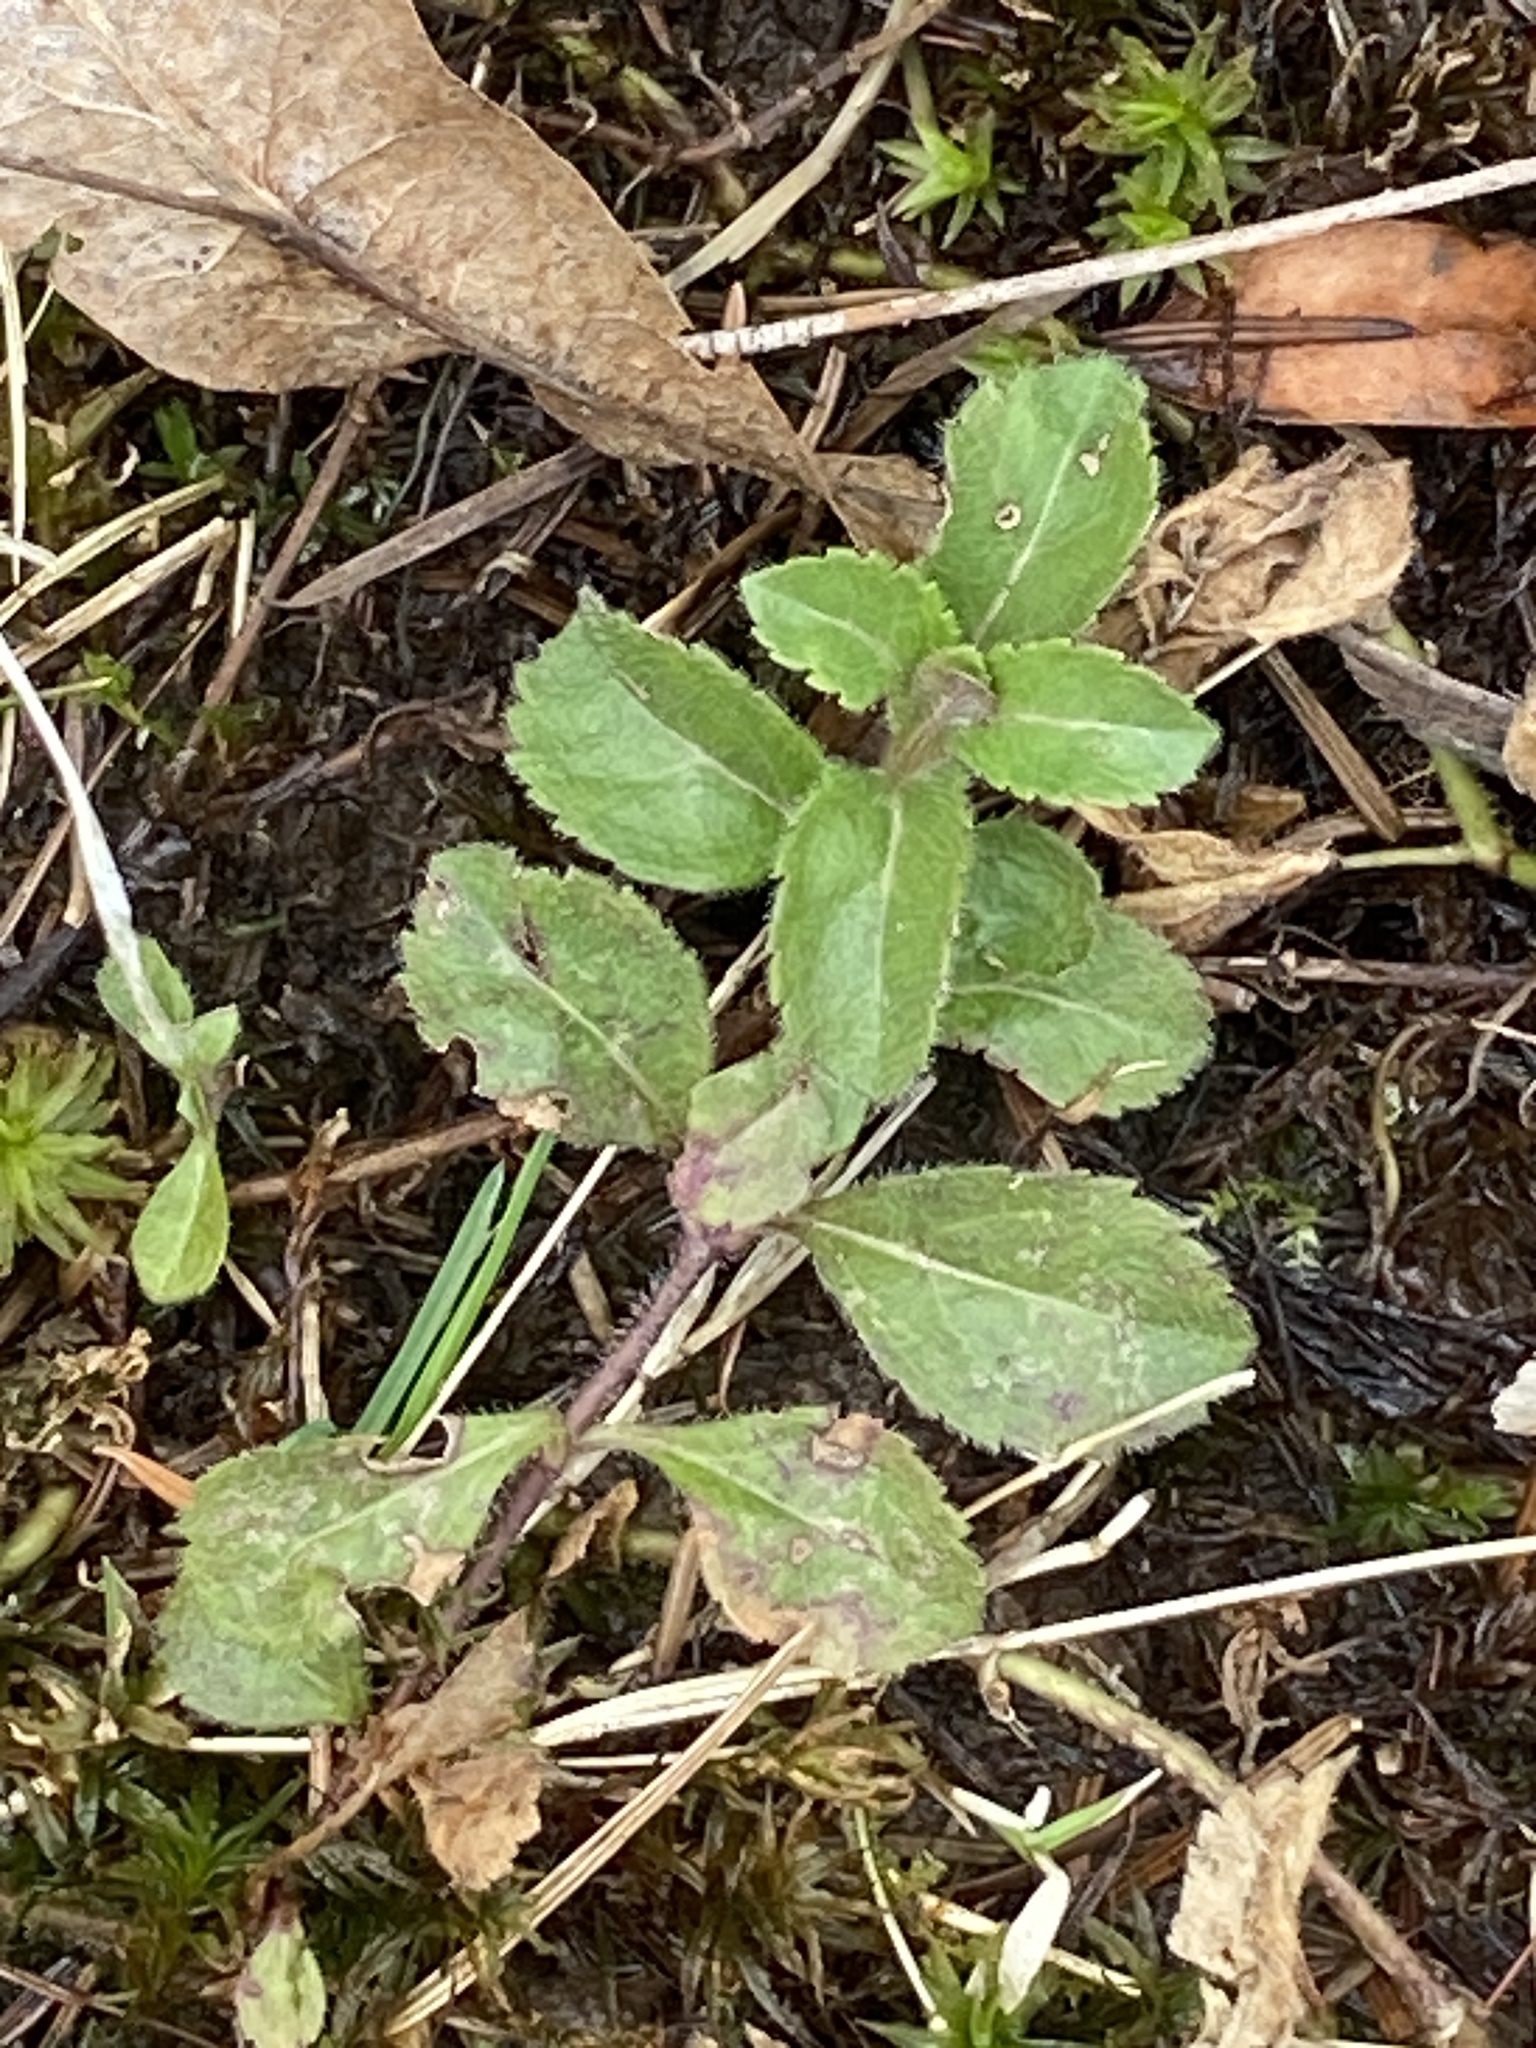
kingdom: Plantae
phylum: Tracheophyta
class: Magnoliopsida
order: Lamiales
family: Plantaginaceae
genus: Veronica
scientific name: Veronica officinalis
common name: Common speedwell
